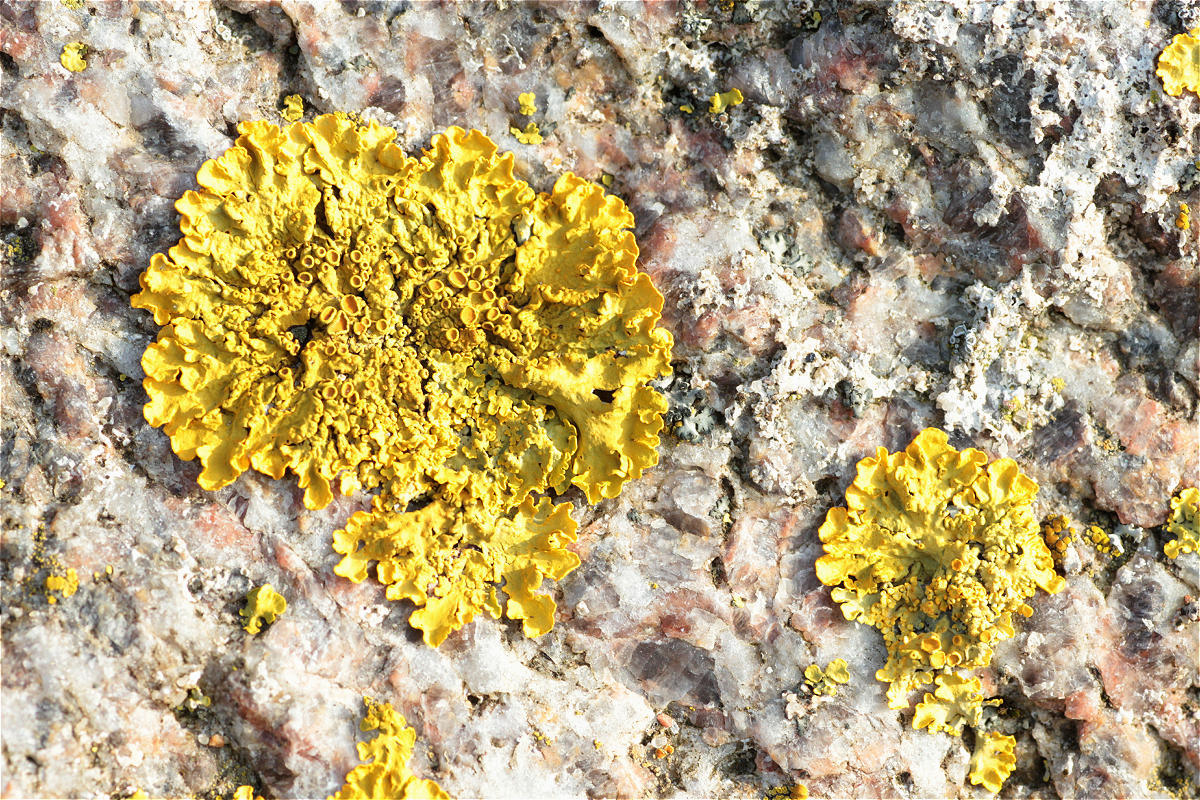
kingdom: Fungi
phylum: Ascomycota
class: Lecanoromycetes
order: Teloschistales
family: Teloschistaceae
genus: Xanthoria
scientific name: Xanthoria parietina
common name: Common orange lichen
